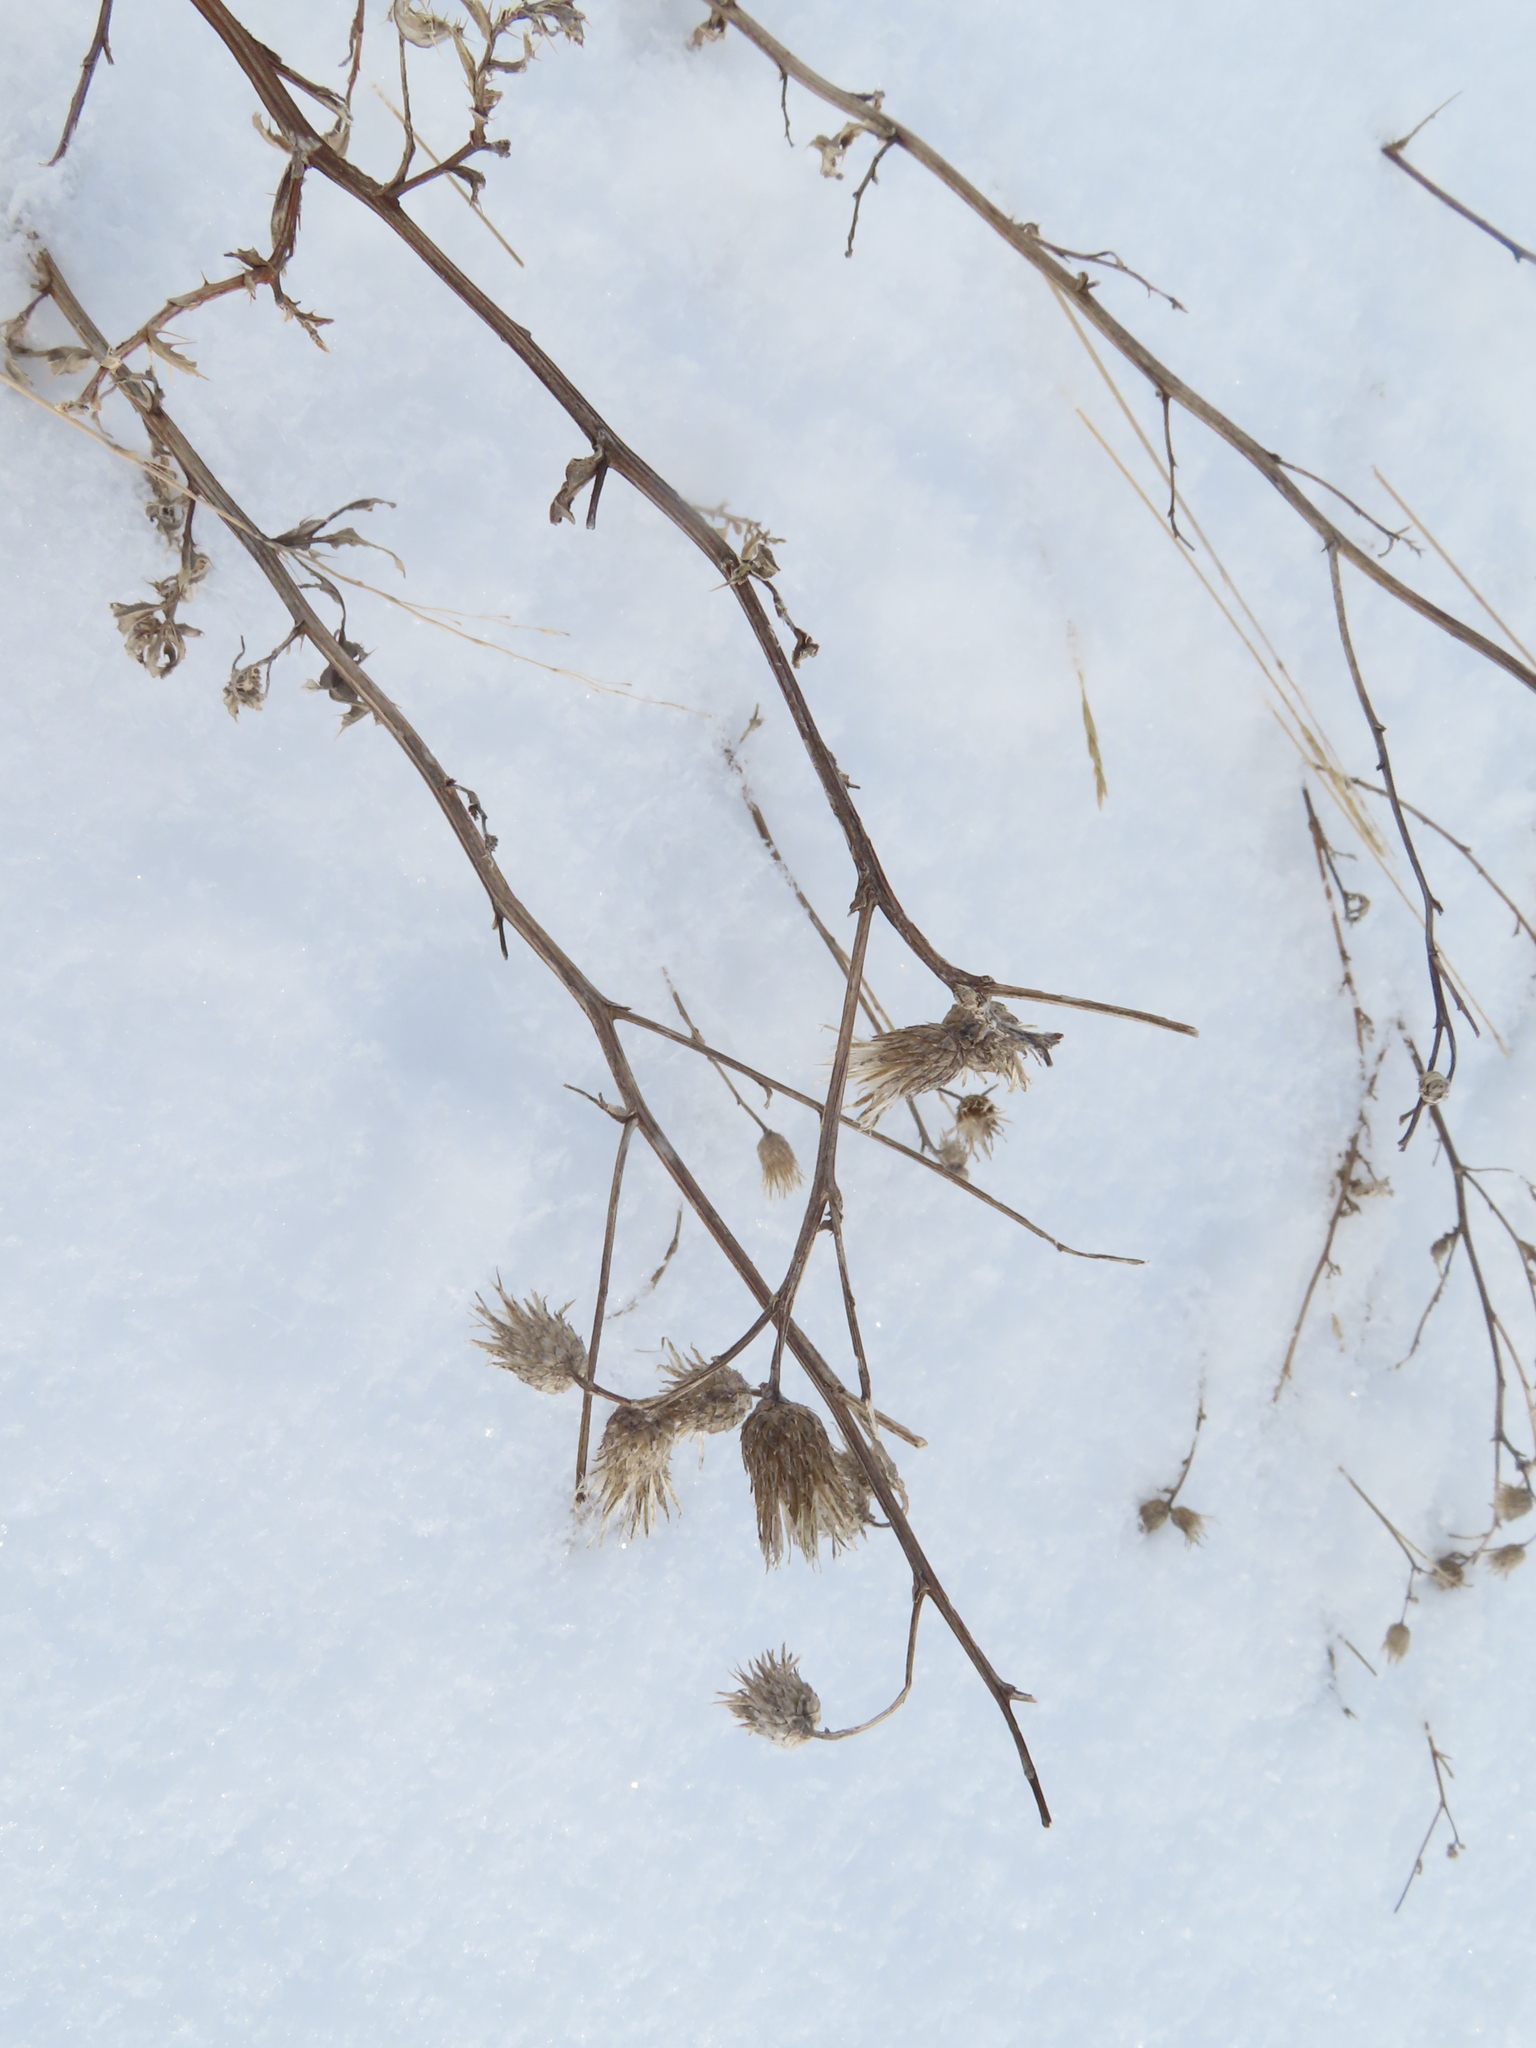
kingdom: Plantae
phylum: Tracheophyta
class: Magnoliopsida
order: Asterales
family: Asteraceae
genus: Cirsium
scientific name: Cirsium arvense
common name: Creeping thistle
